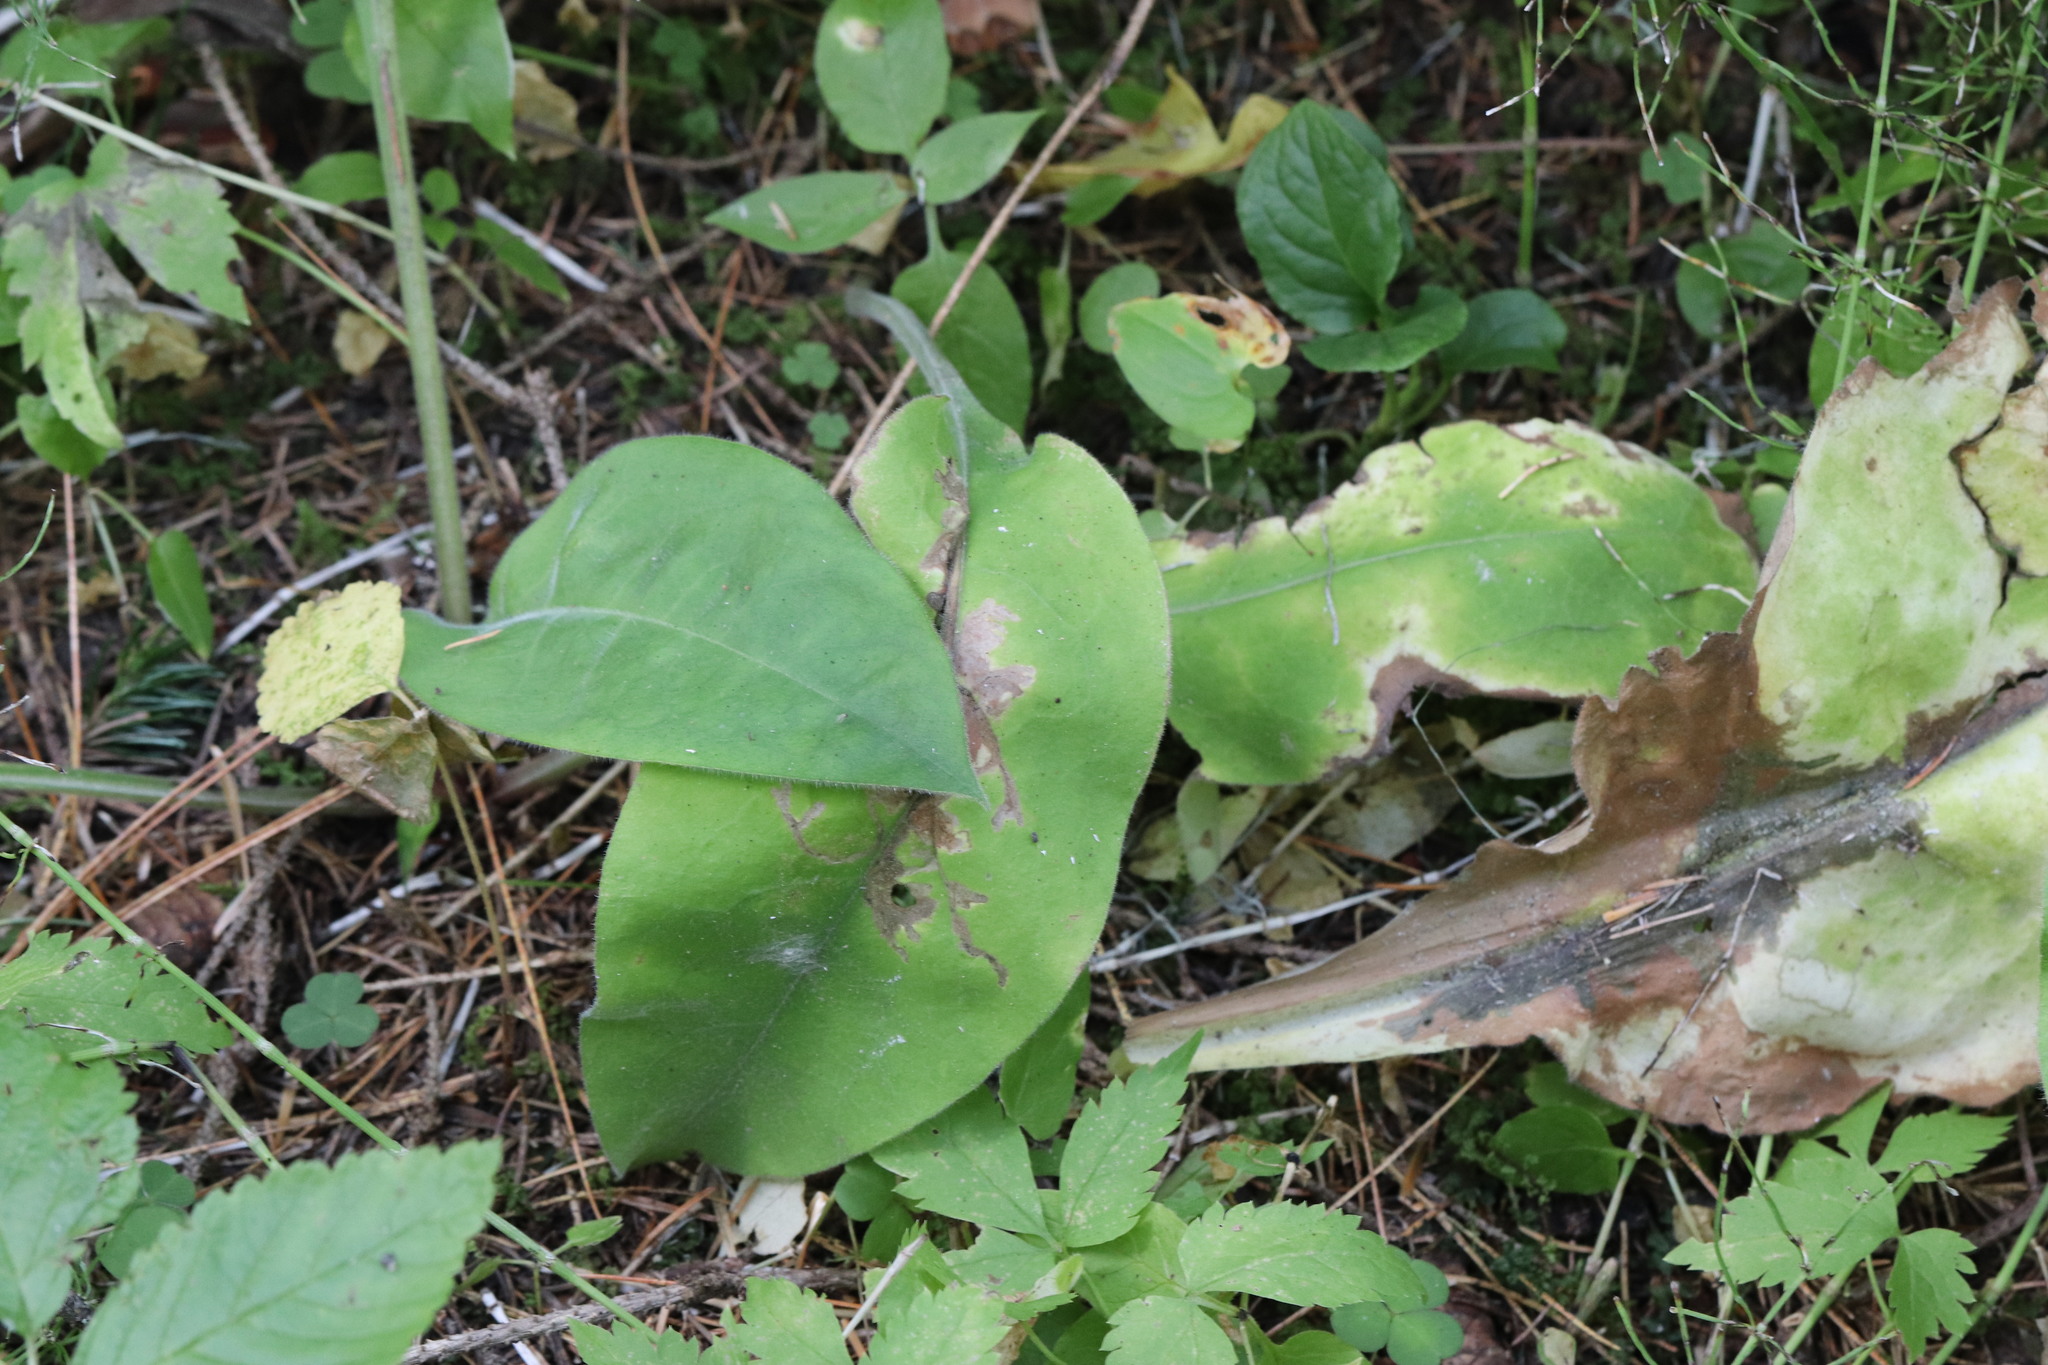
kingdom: Plantae
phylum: Tracheophyta
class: Magnoliopsida
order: Boraginales
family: Boraginaceae
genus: Pulmonaria
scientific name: Pulmonaria mollis
